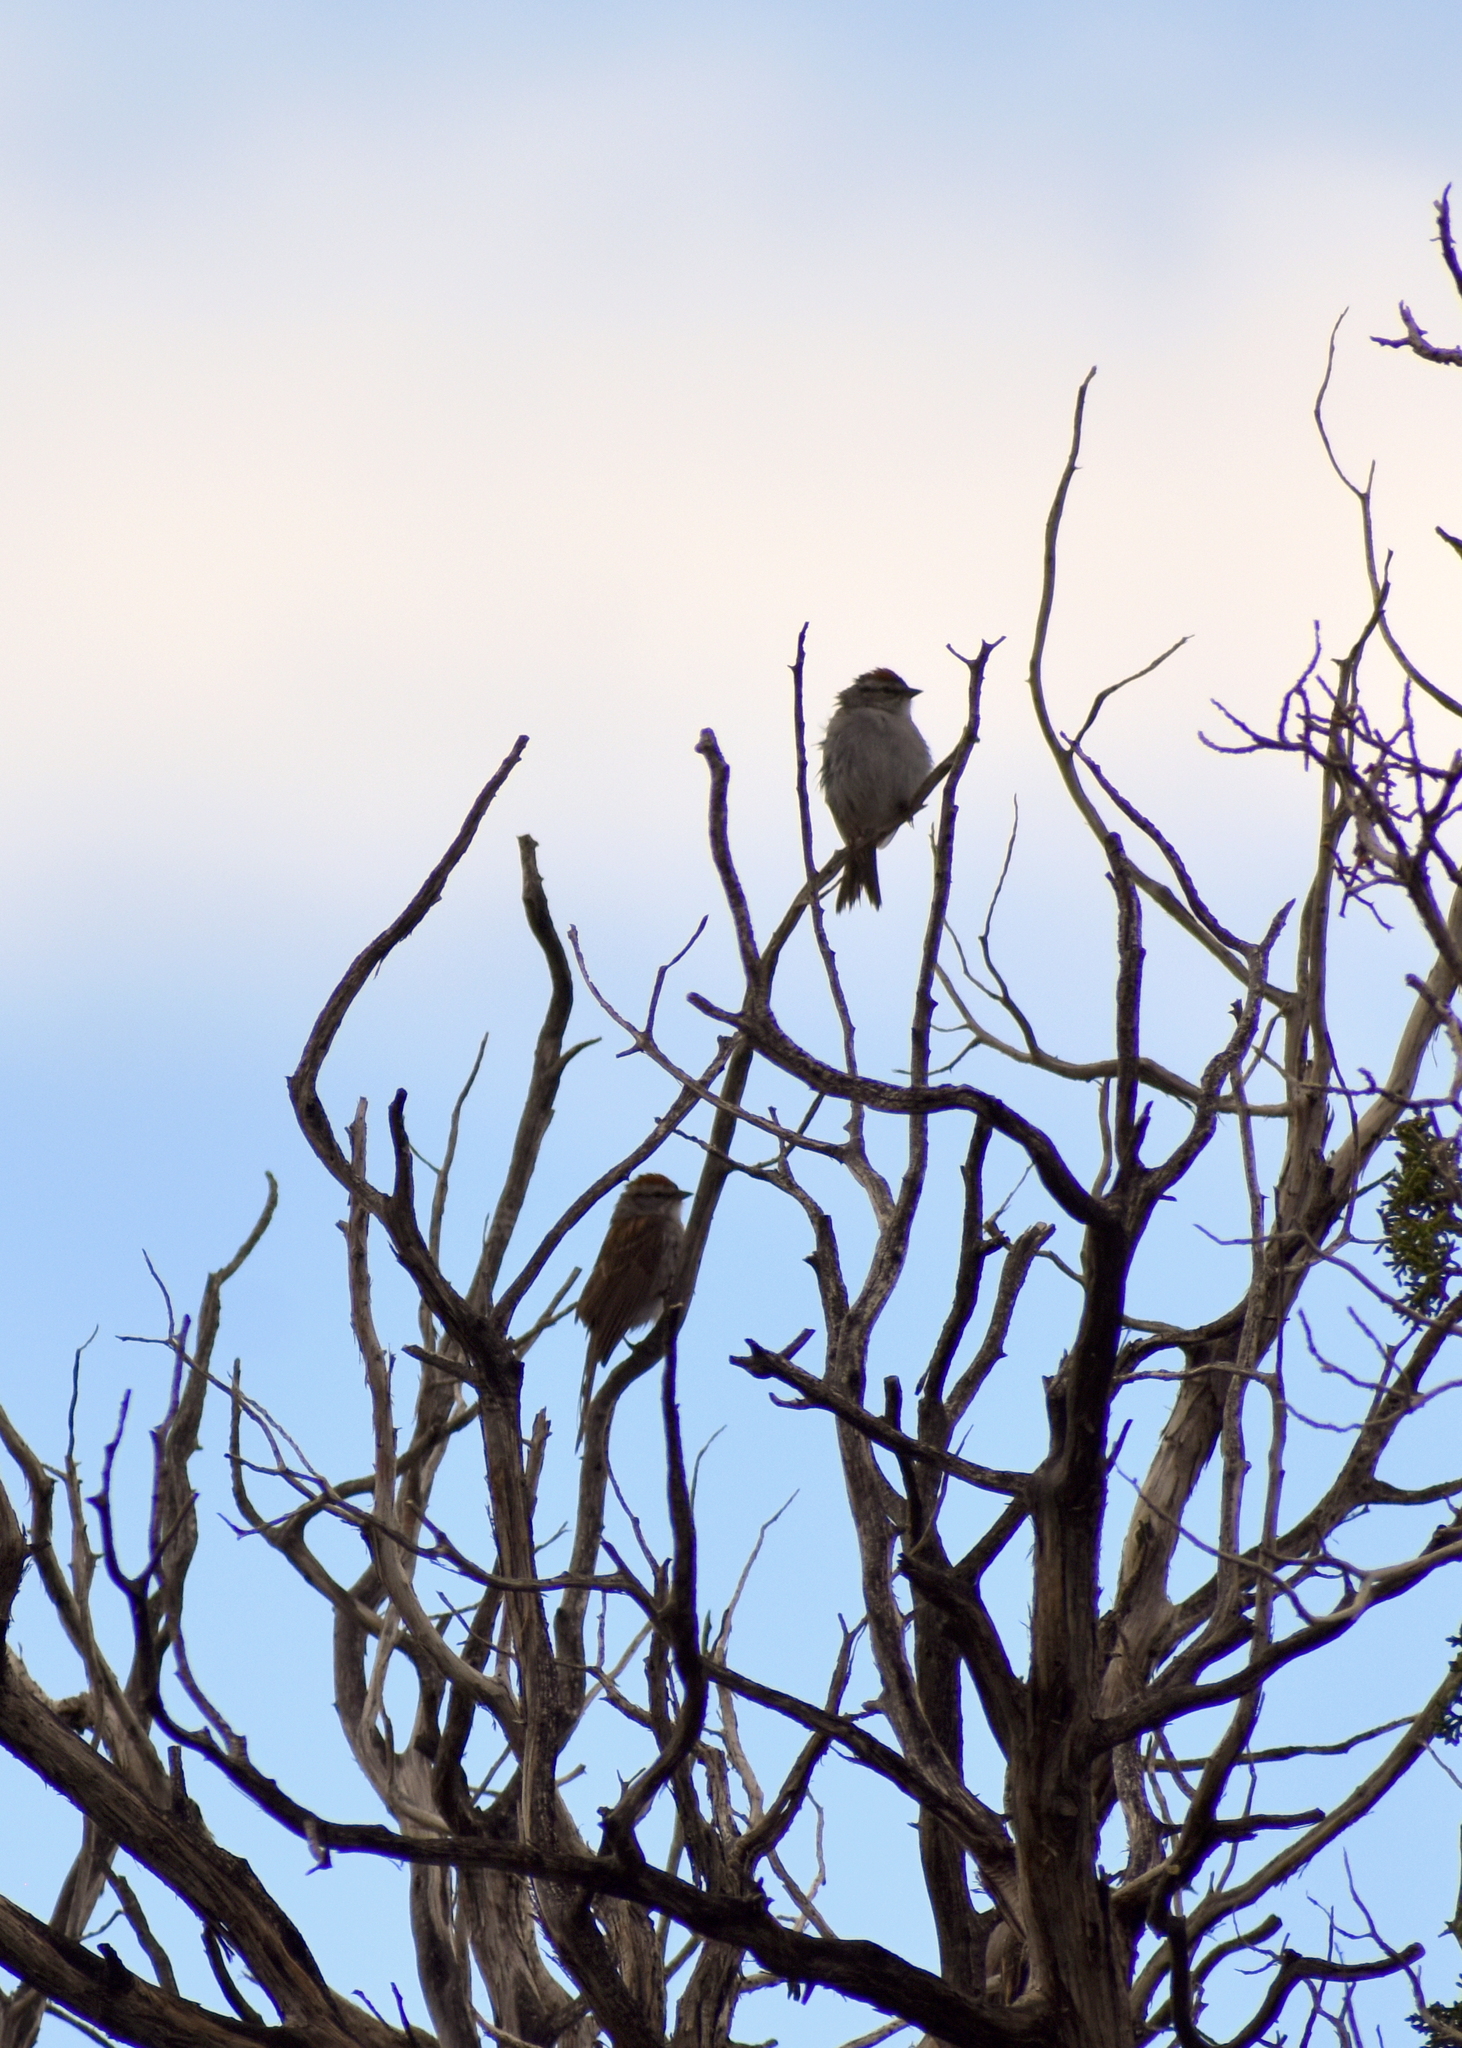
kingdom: Animalia
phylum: Chordata
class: Aves
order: Passeriformes
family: Passerellidae
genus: Spizella
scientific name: Spizella passerina
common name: Chipping sparrow
